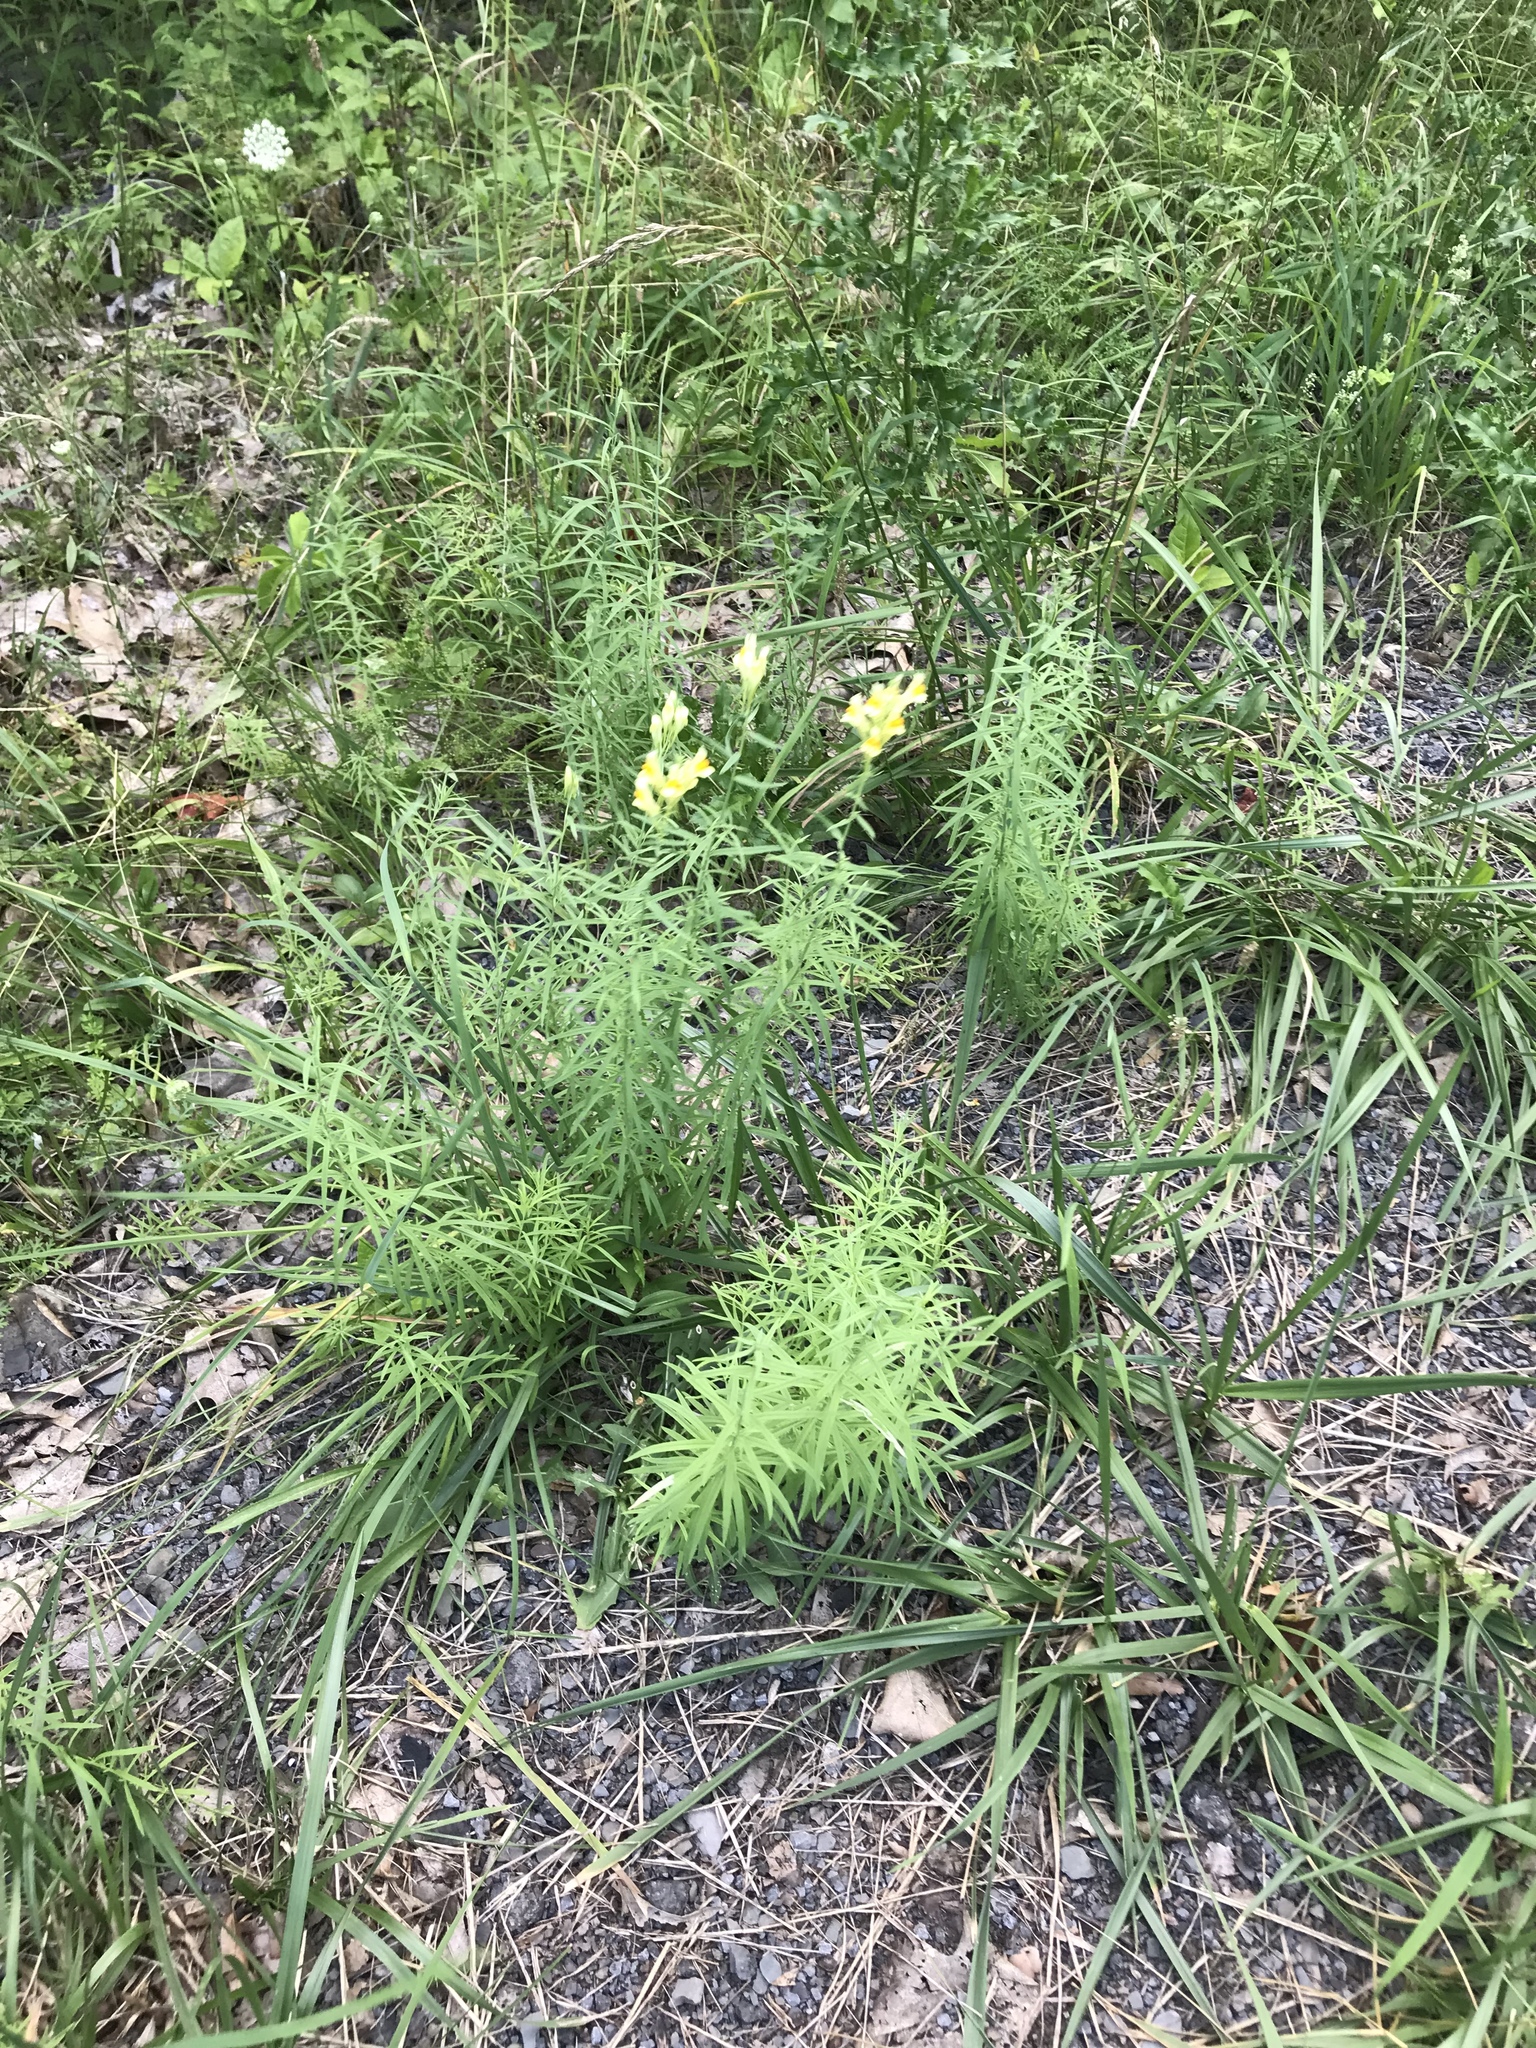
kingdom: Plantae
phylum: Tracheophyta
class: Magnoliopsida
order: Lamiales
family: Plantaginaceae
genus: Linaria
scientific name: Linaria vulgaris
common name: Butter and eggs
